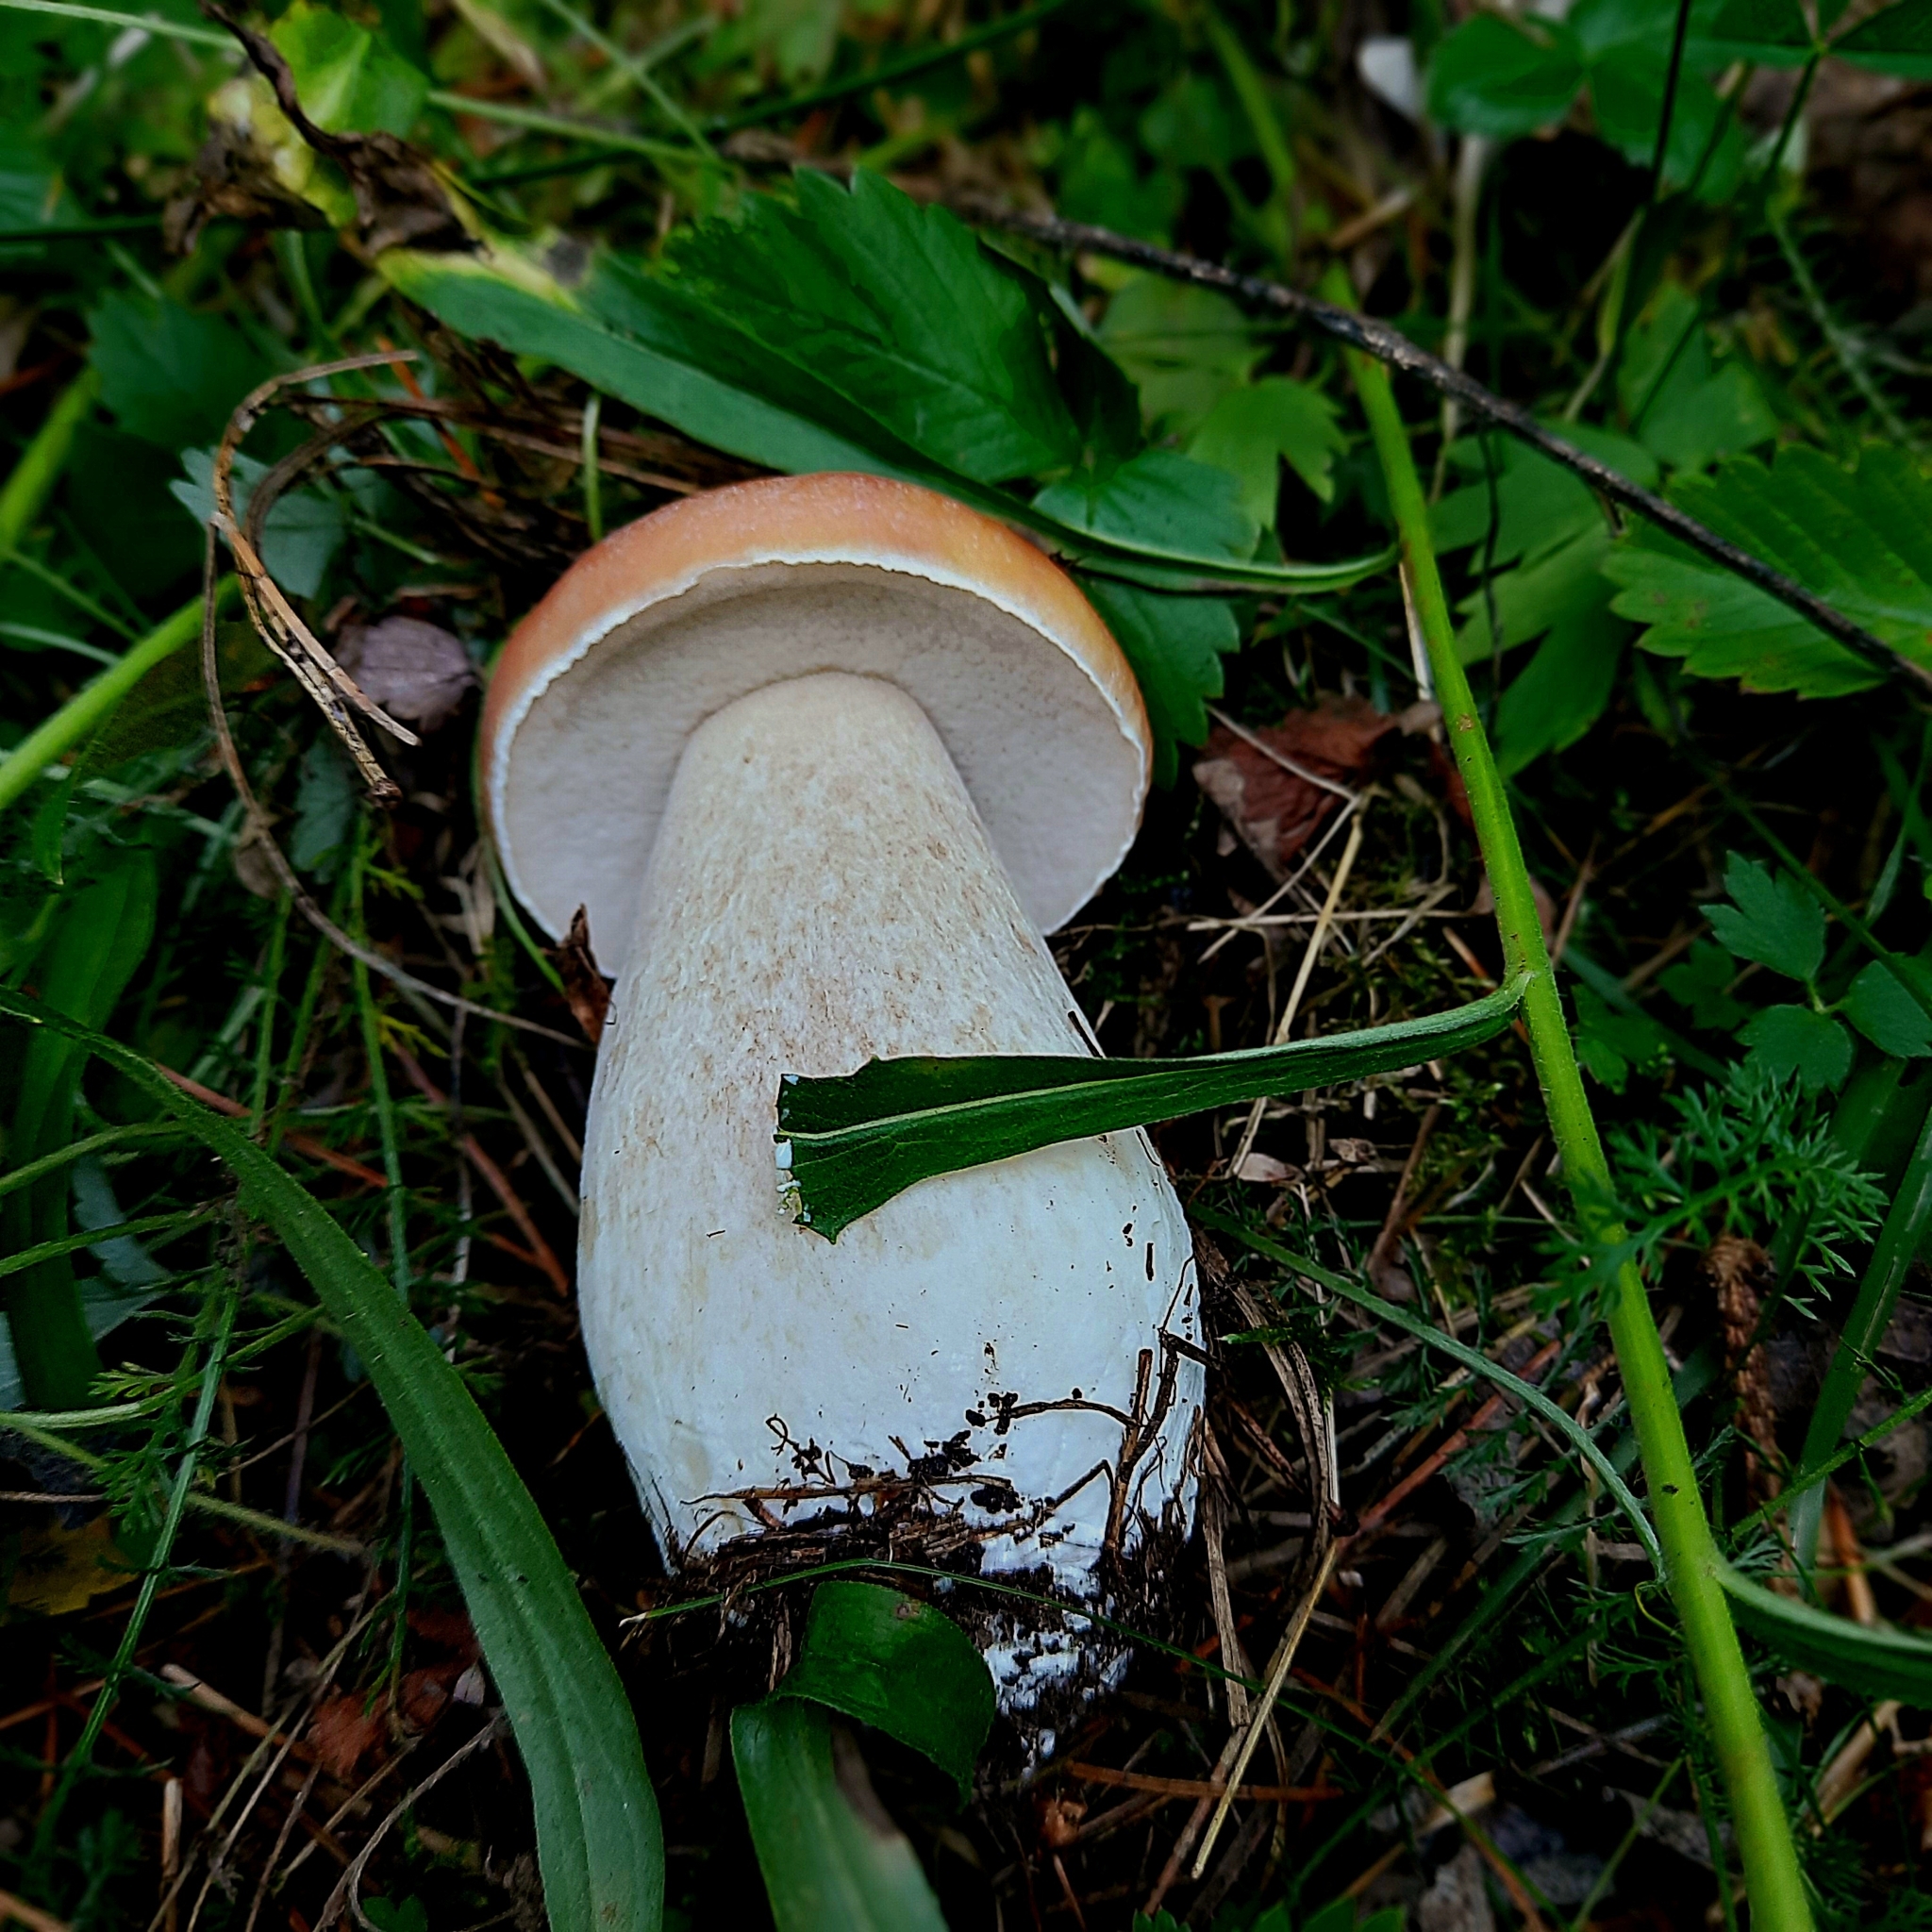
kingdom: Fungi
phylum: Basidiomycota
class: Agaricomycetes
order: Boletales
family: Boletaceae
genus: Boletus
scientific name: Boletus edulis
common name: Cep
